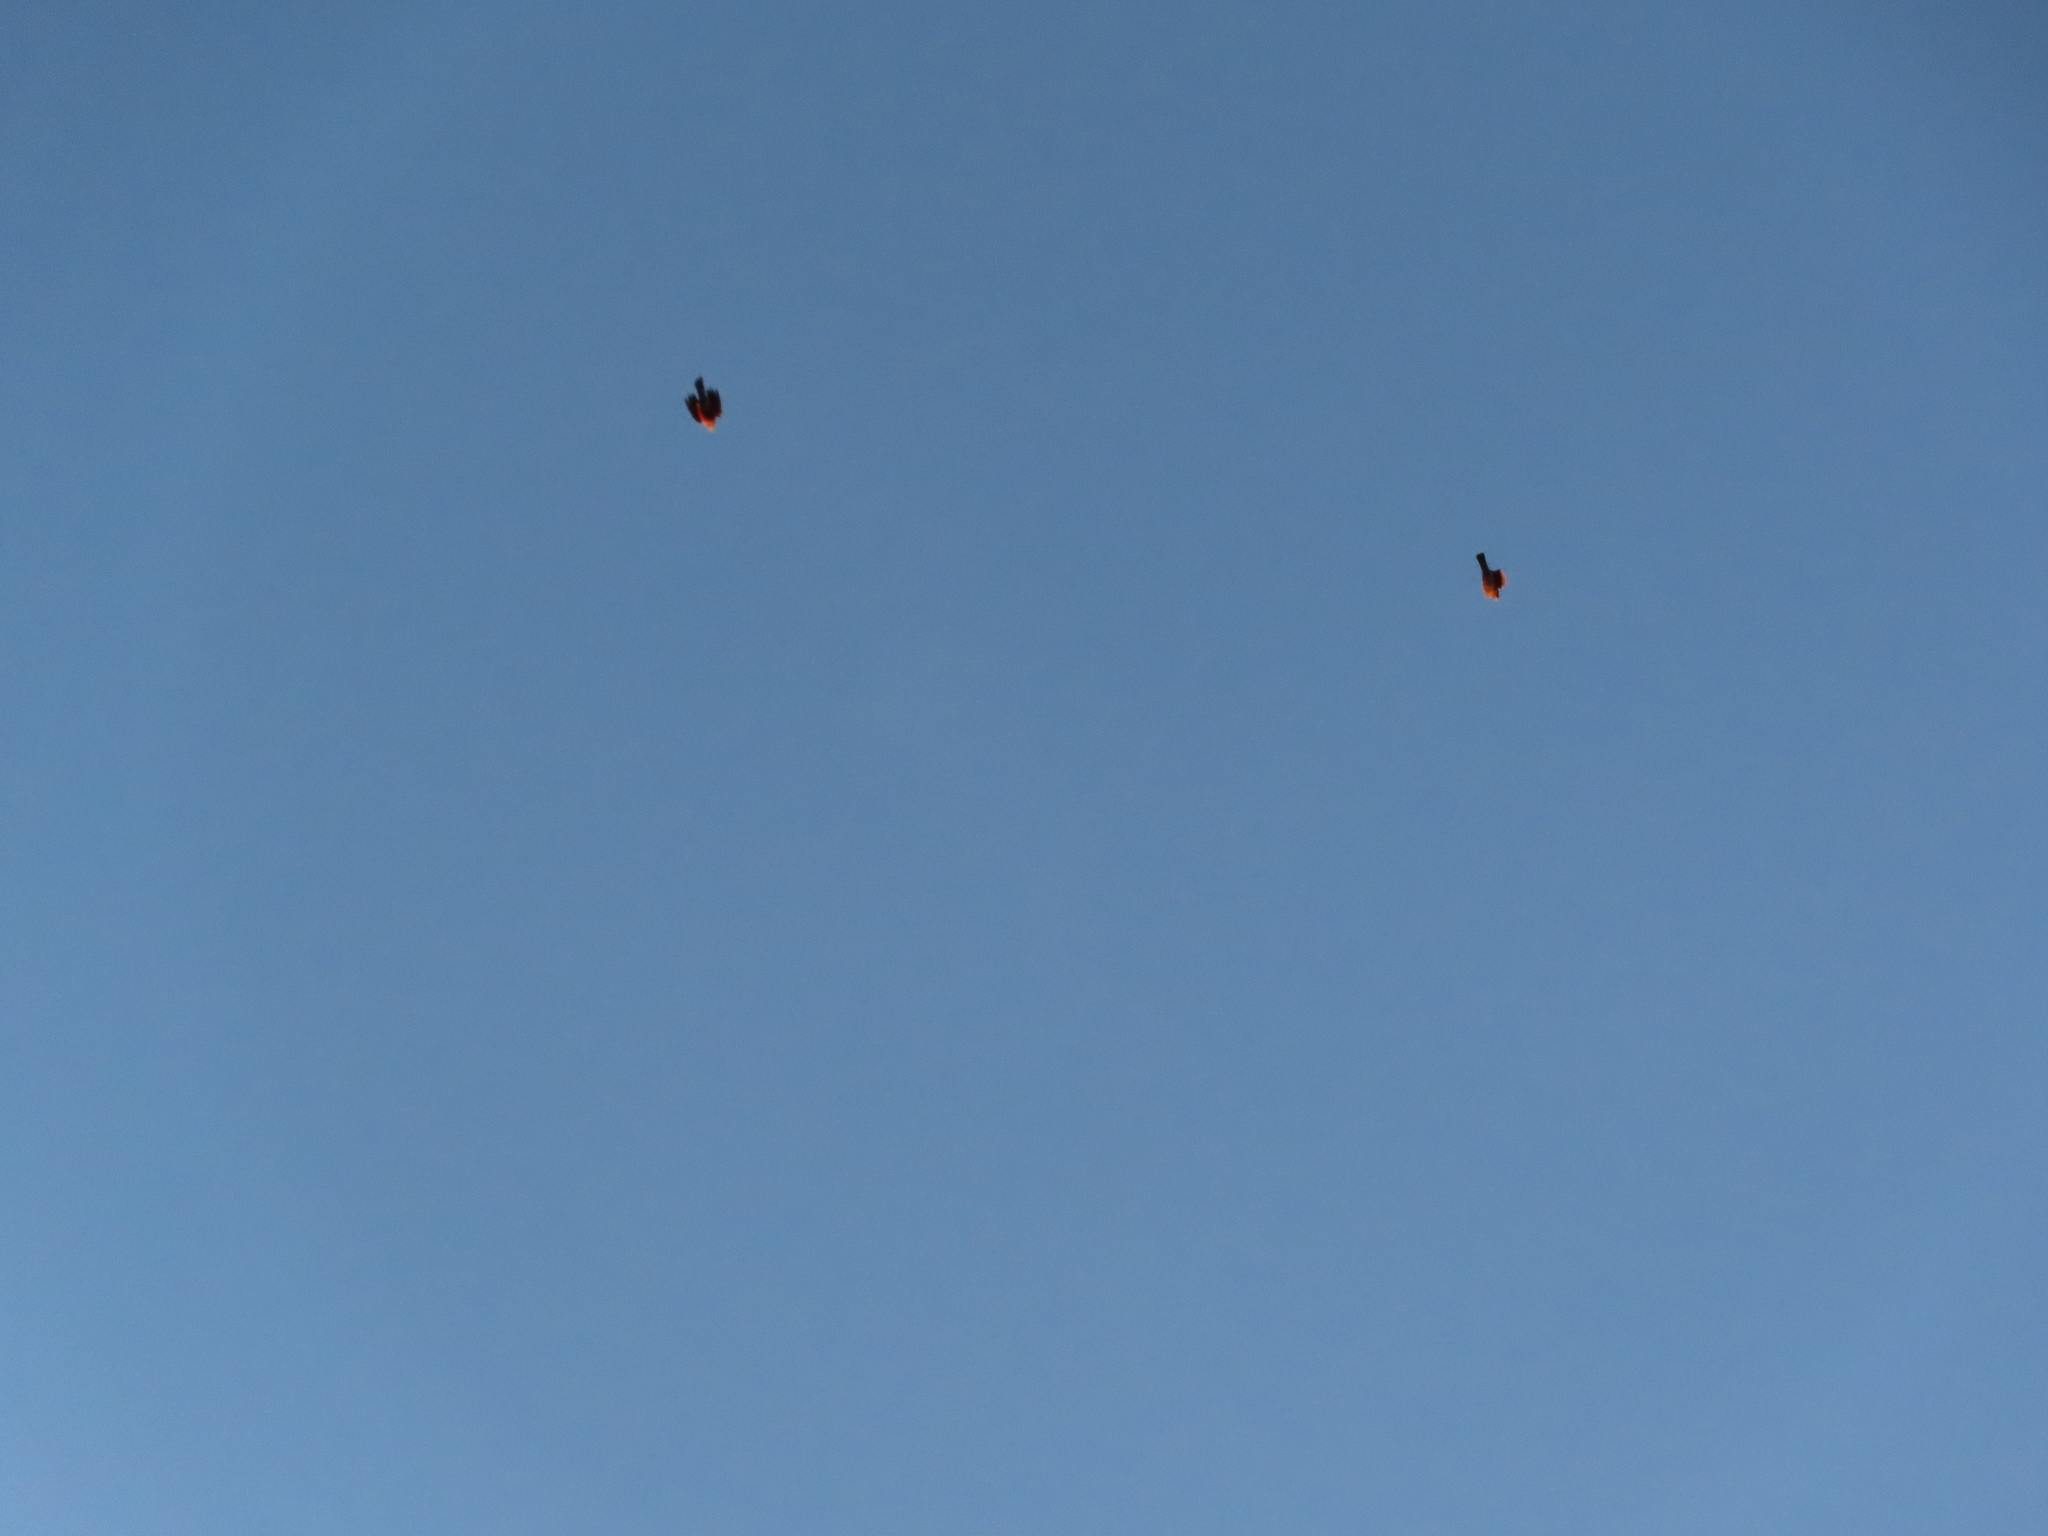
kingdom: Animalia
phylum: Chordata
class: Aves
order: Passeriformes
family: Turdidae
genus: Turdus
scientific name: Turdus migratorius
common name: American robin
